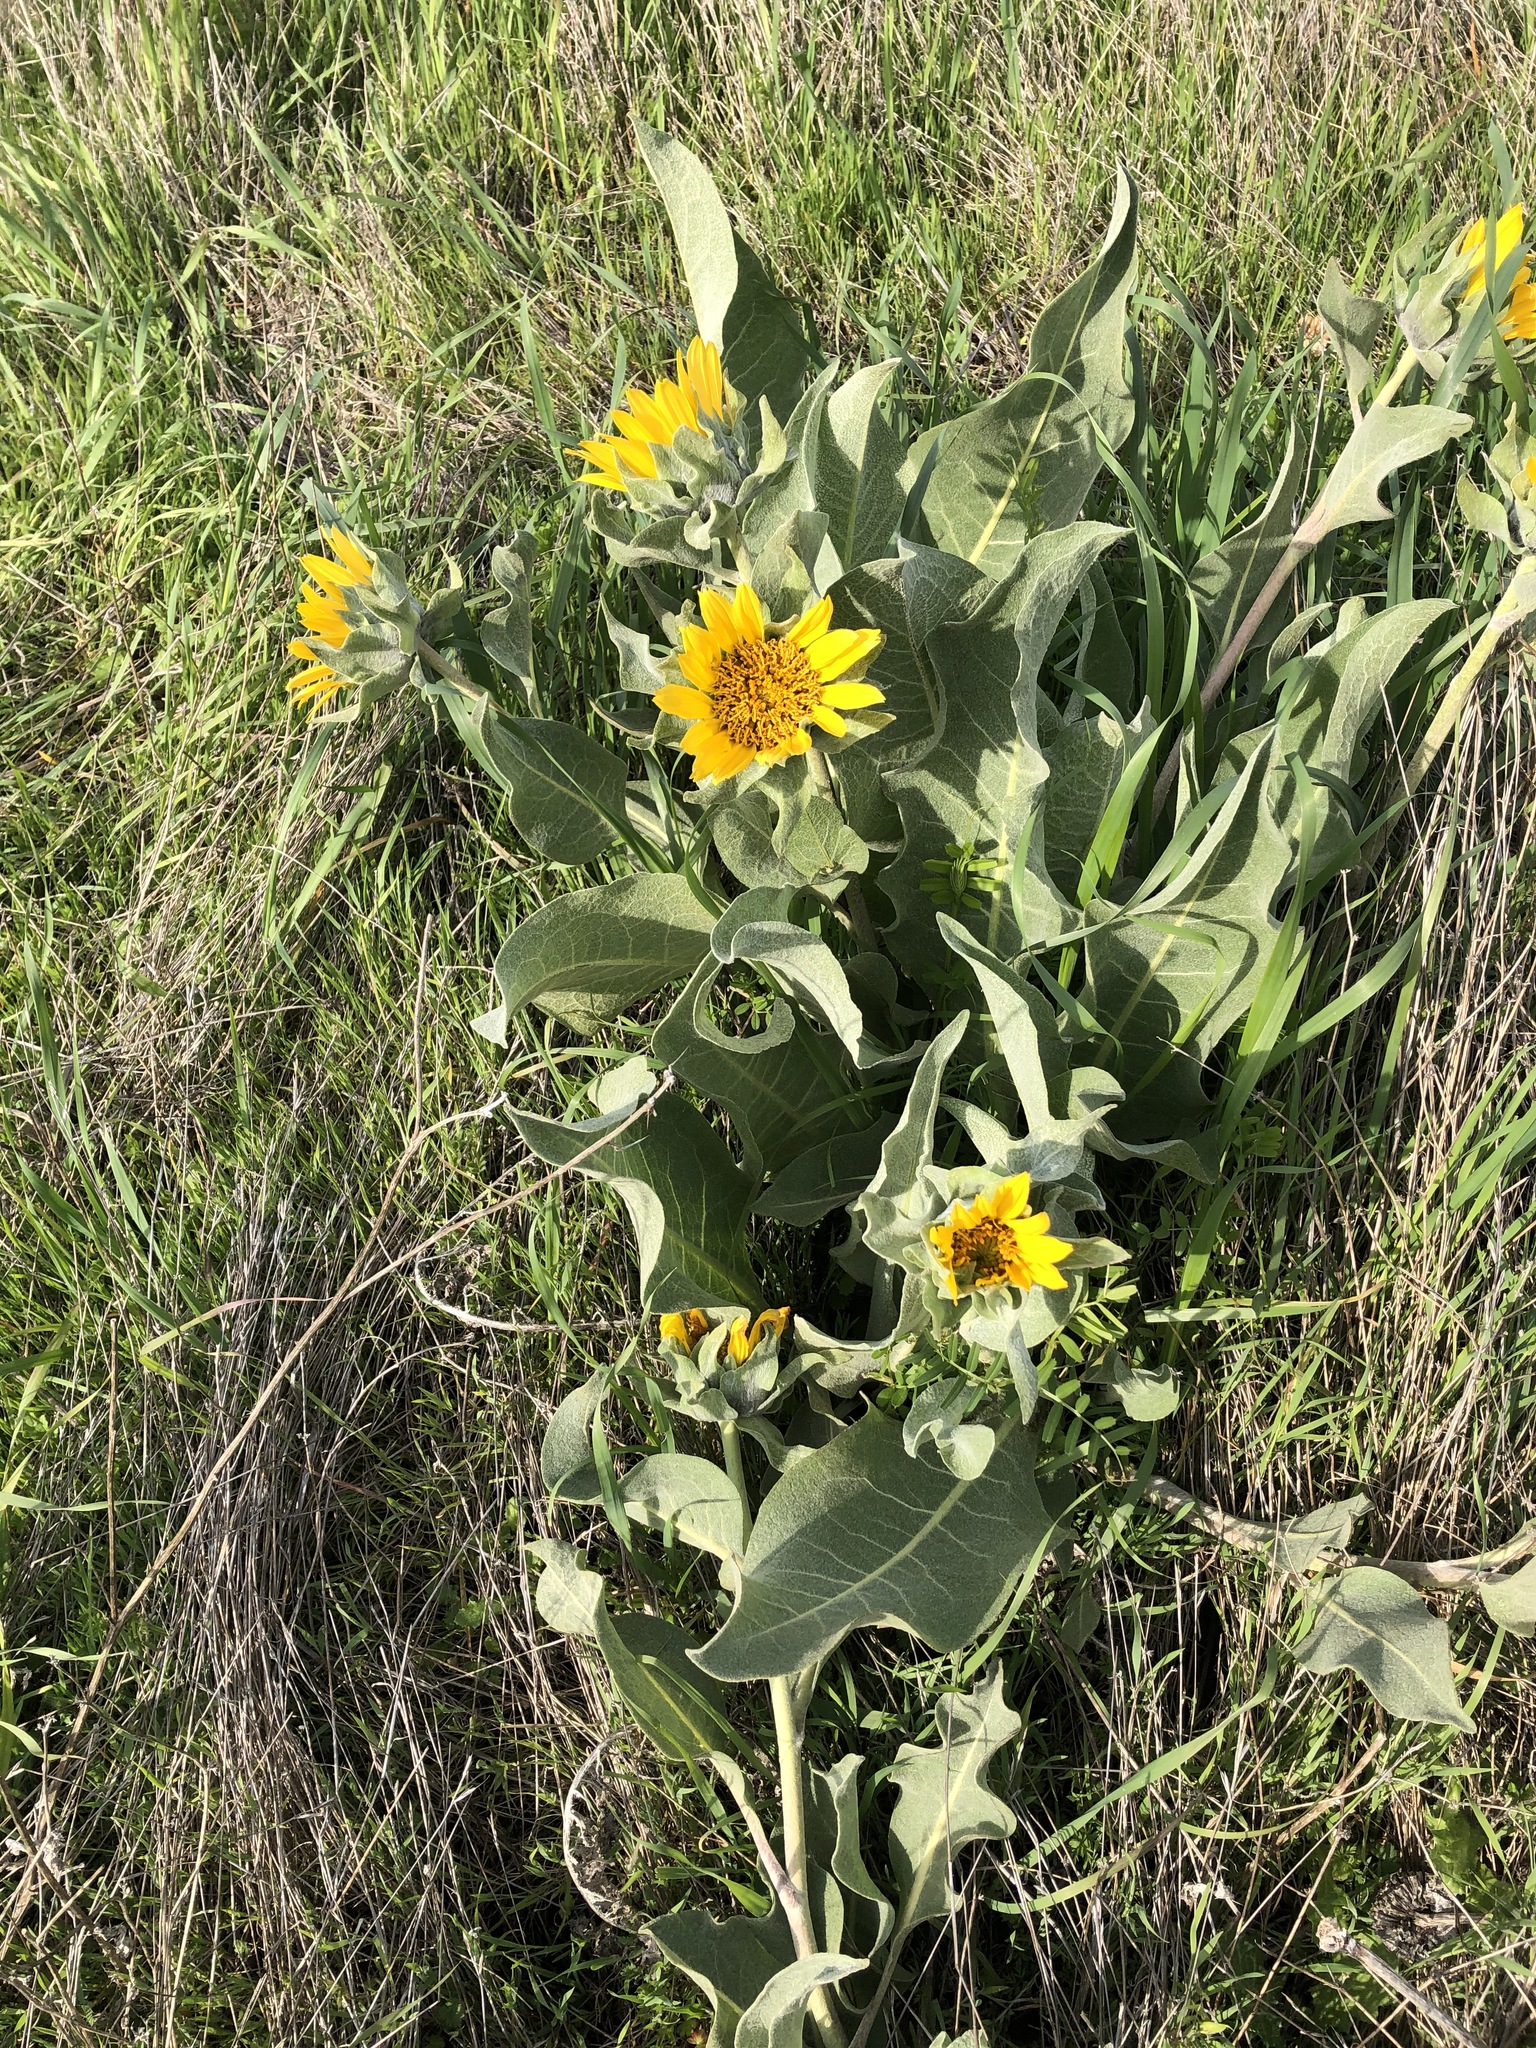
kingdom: Plantae
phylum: Tracheophyta
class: Magnoliopsida
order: Asterales
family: Asteraceae
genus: Wyethia
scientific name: Wyethia helenioides
